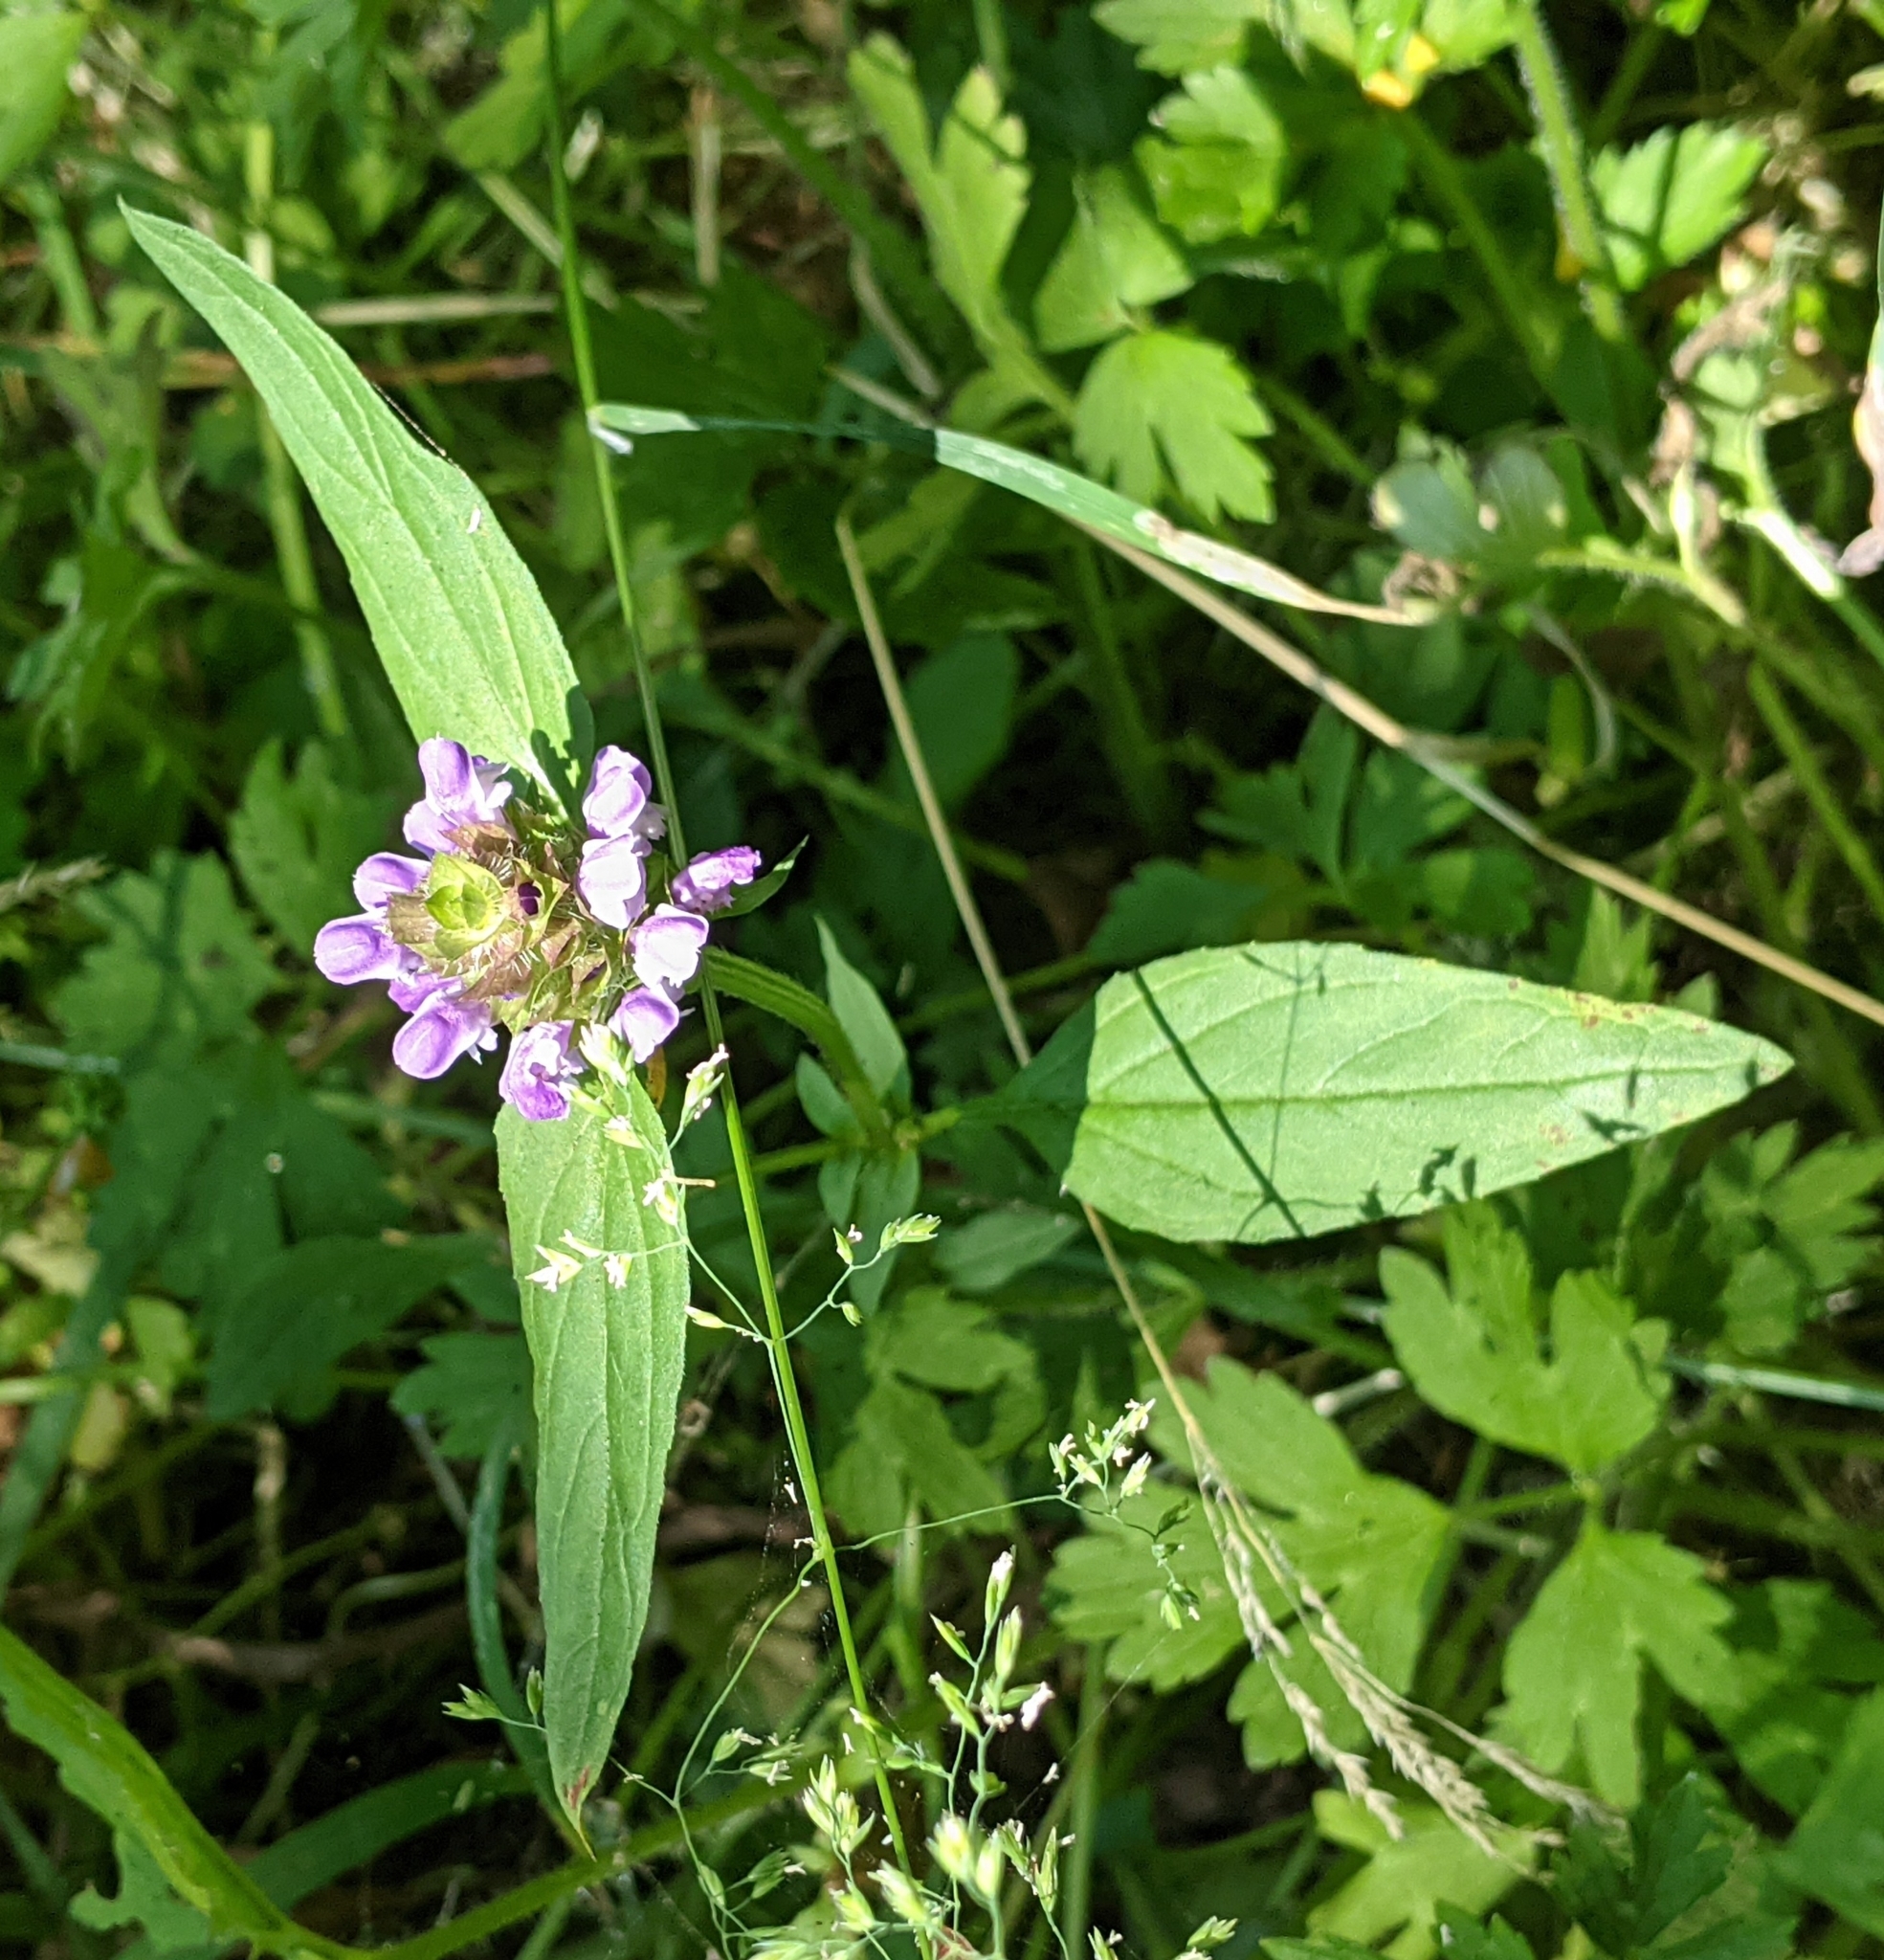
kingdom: Plantae
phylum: Tracheophyta
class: Magnoliopsida
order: Lamiales
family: Lamiaceae
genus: Prunella
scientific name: Prunella vulgaris
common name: Heal-all
